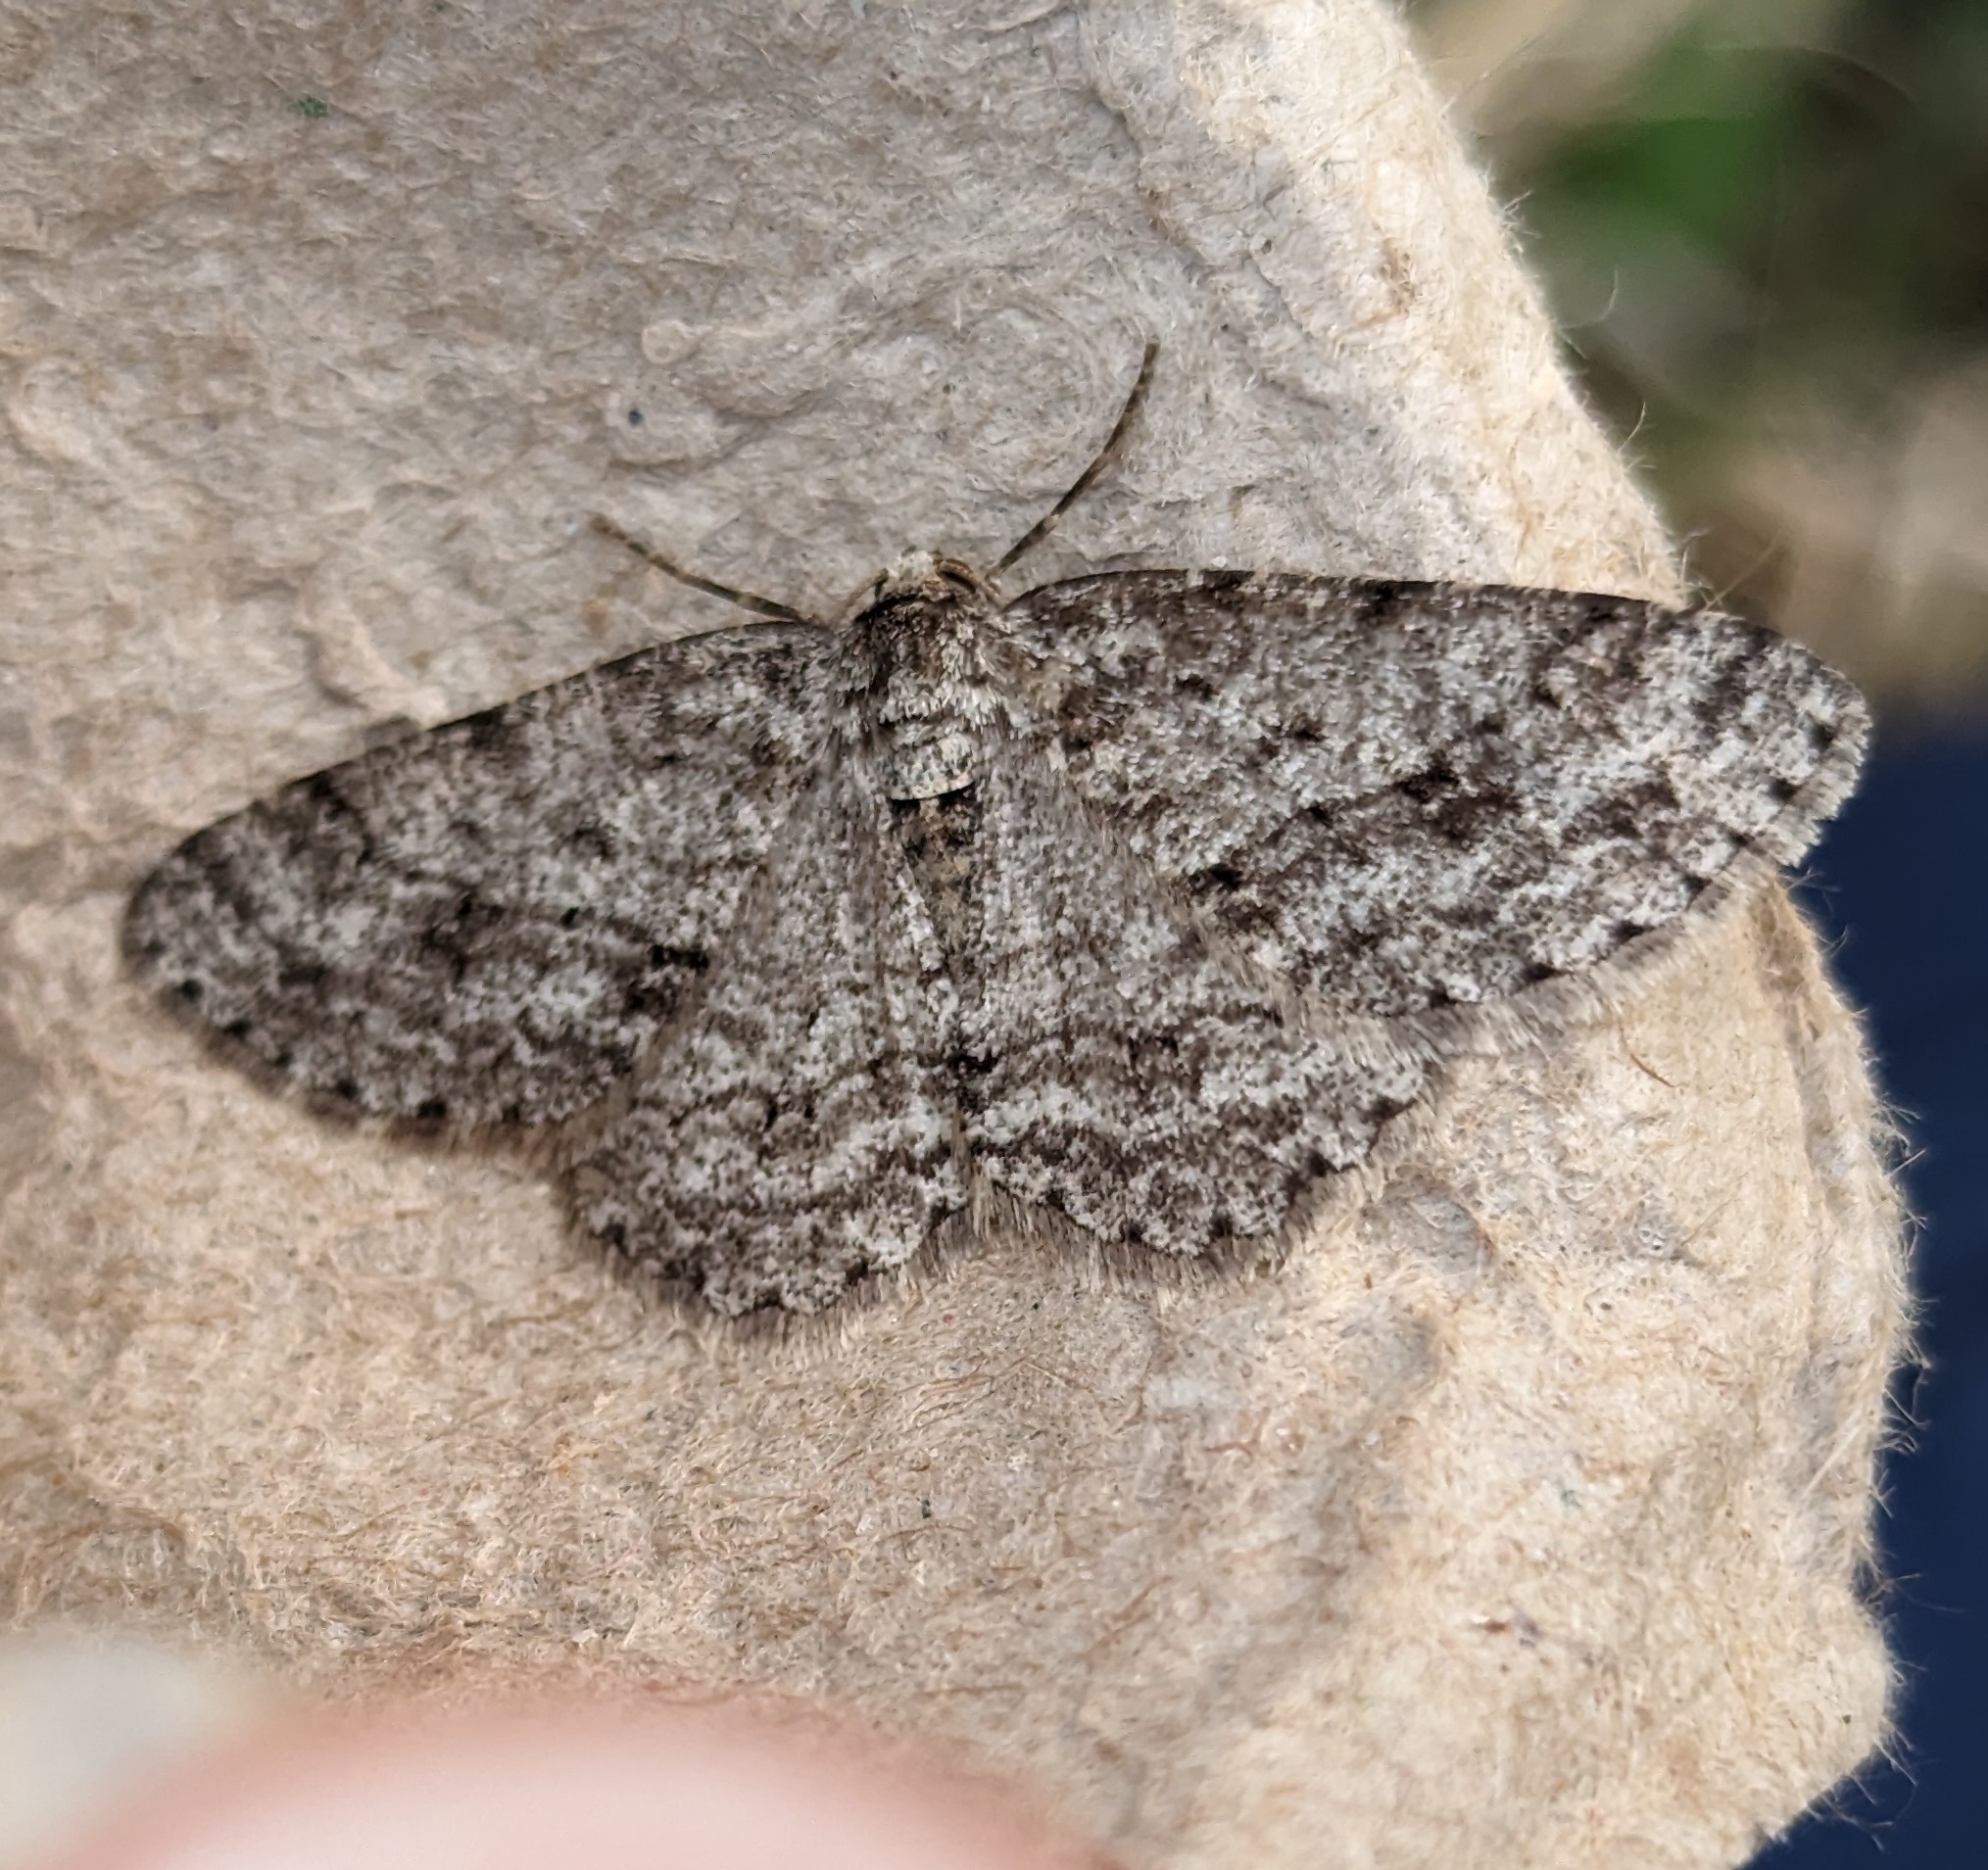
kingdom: Animalia
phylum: Arthropoda
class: Insecta
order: Lepidoptera
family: Geometridae
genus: Ectropis
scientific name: Ectropis crepuscularia
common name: Engrailed
